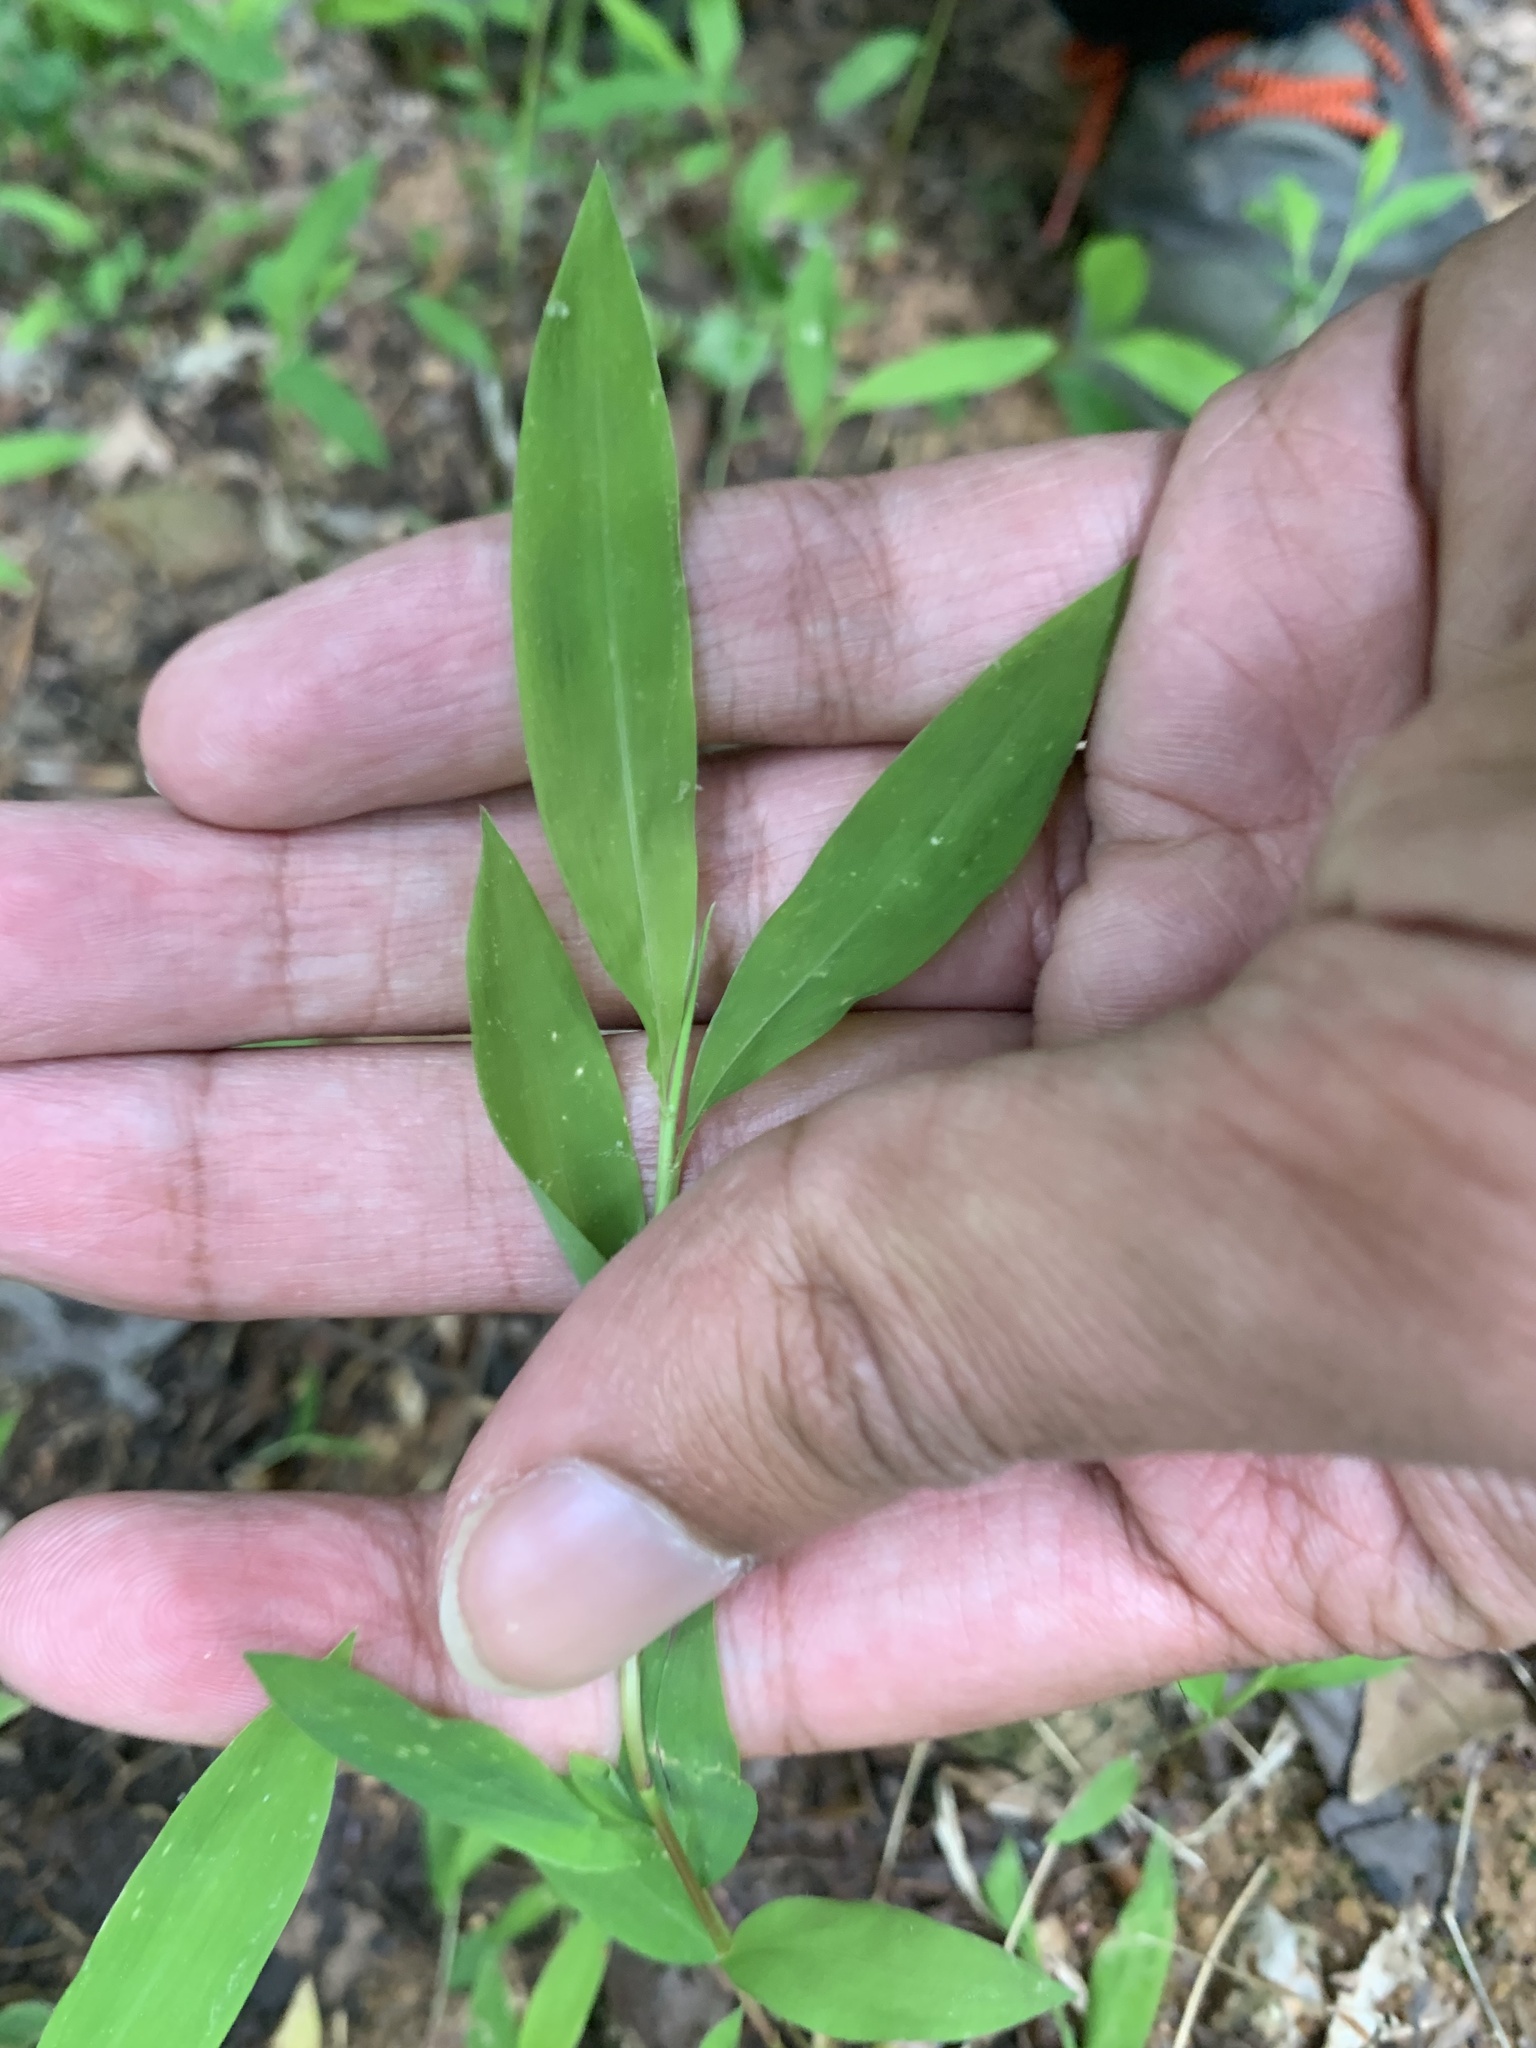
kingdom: Plantae
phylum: Tracheophyta
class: Liliopsida
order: Poales
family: Poaceae
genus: Microstegium
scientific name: Microstegium vimineum
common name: Japanese stiltgrass
